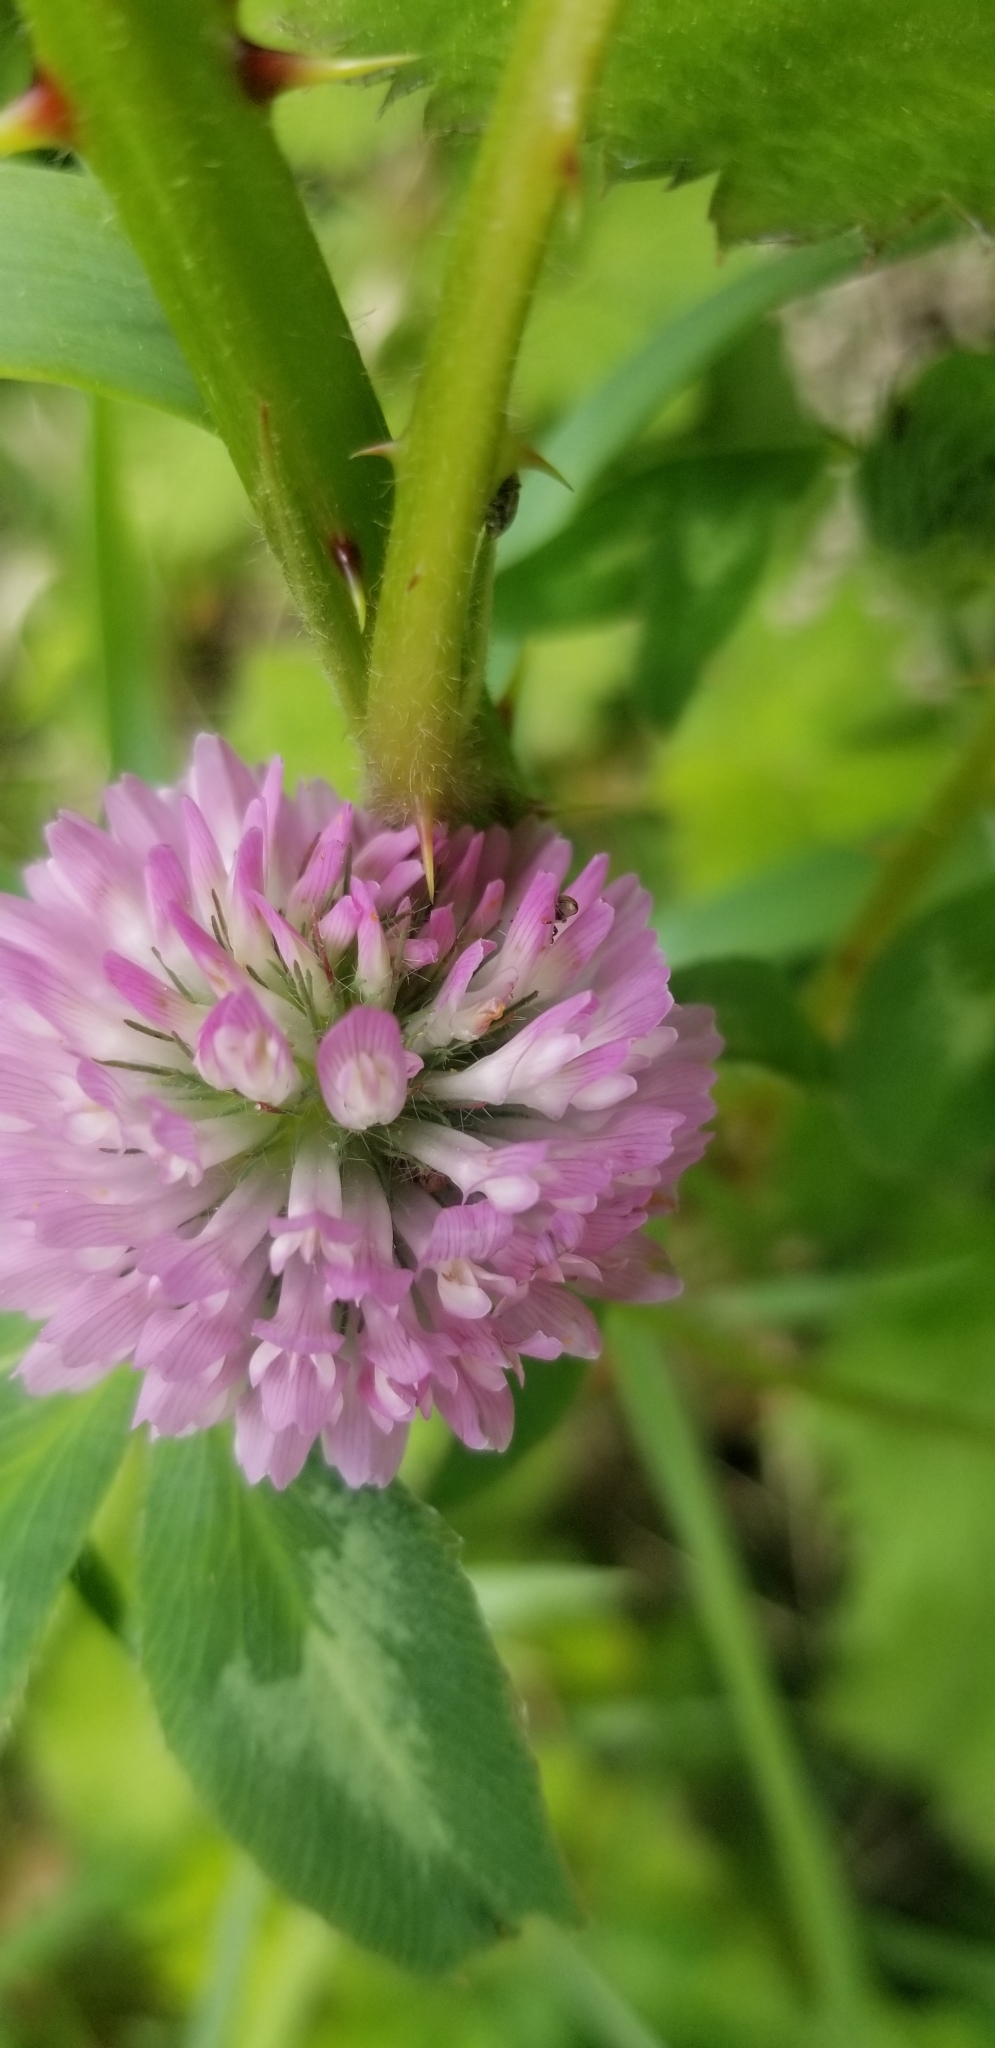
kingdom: Plantae
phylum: Tracheophyta
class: Magnoliopsida
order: Fabales
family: Fabaceae
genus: Trifolium
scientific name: Trifolium pratense
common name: Red clover
